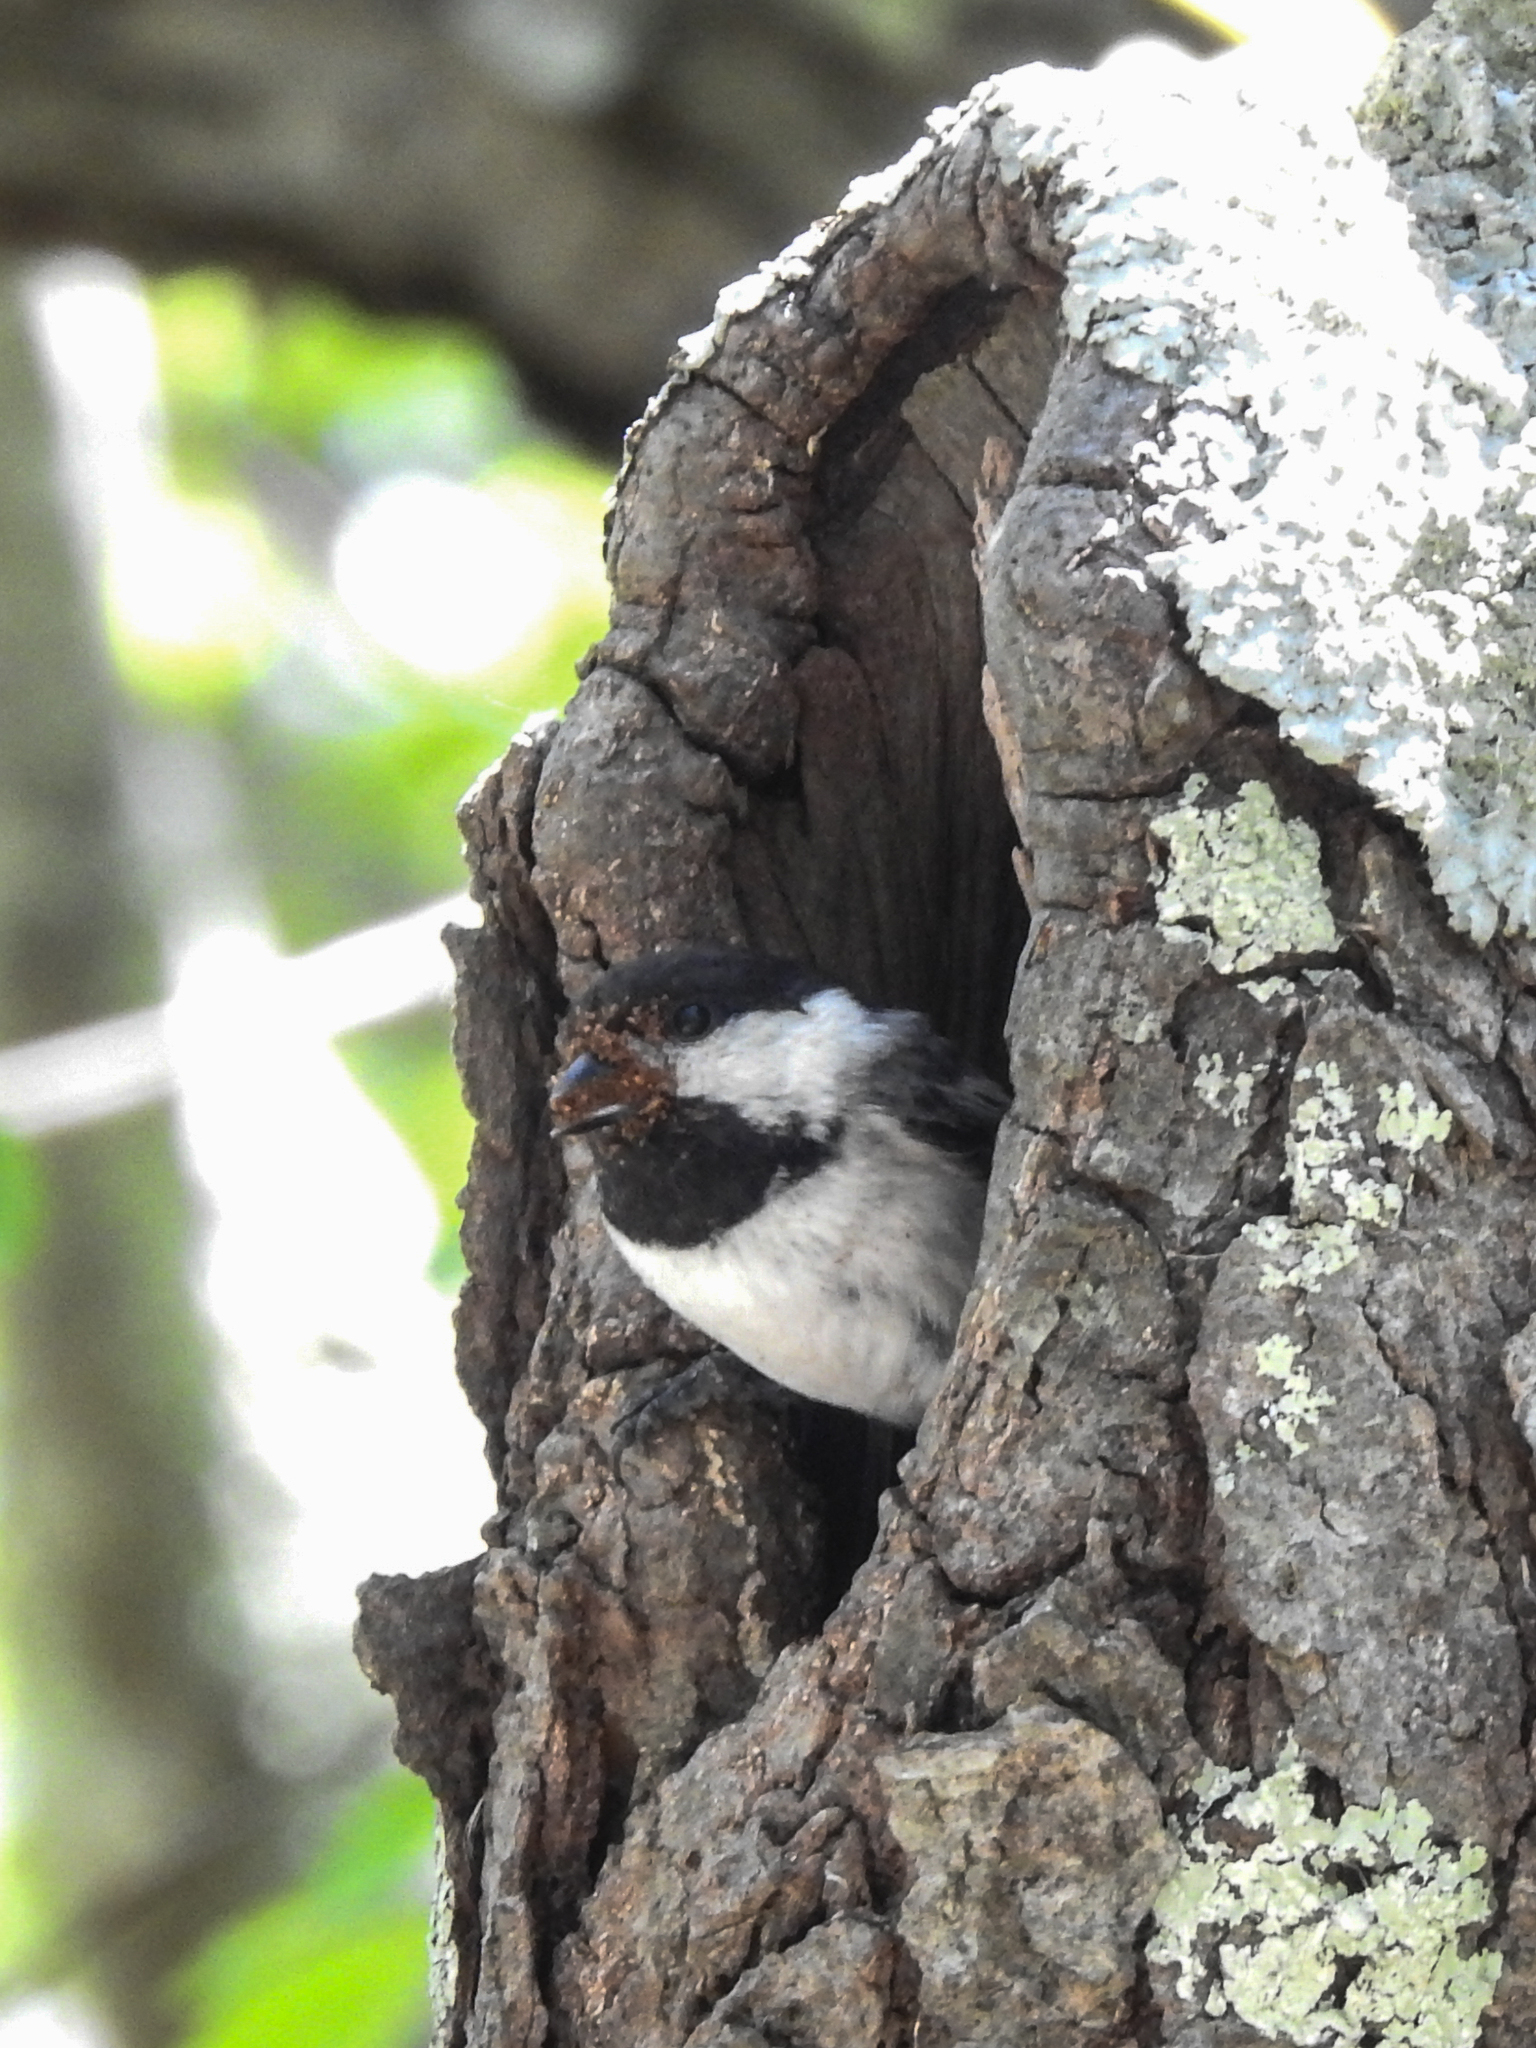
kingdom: Animalia
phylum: Chordata
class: Aves
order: Passeriformes
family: Paridae
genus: Poecile
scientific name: Poecile atricapillus
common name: Black-capped chickadee
